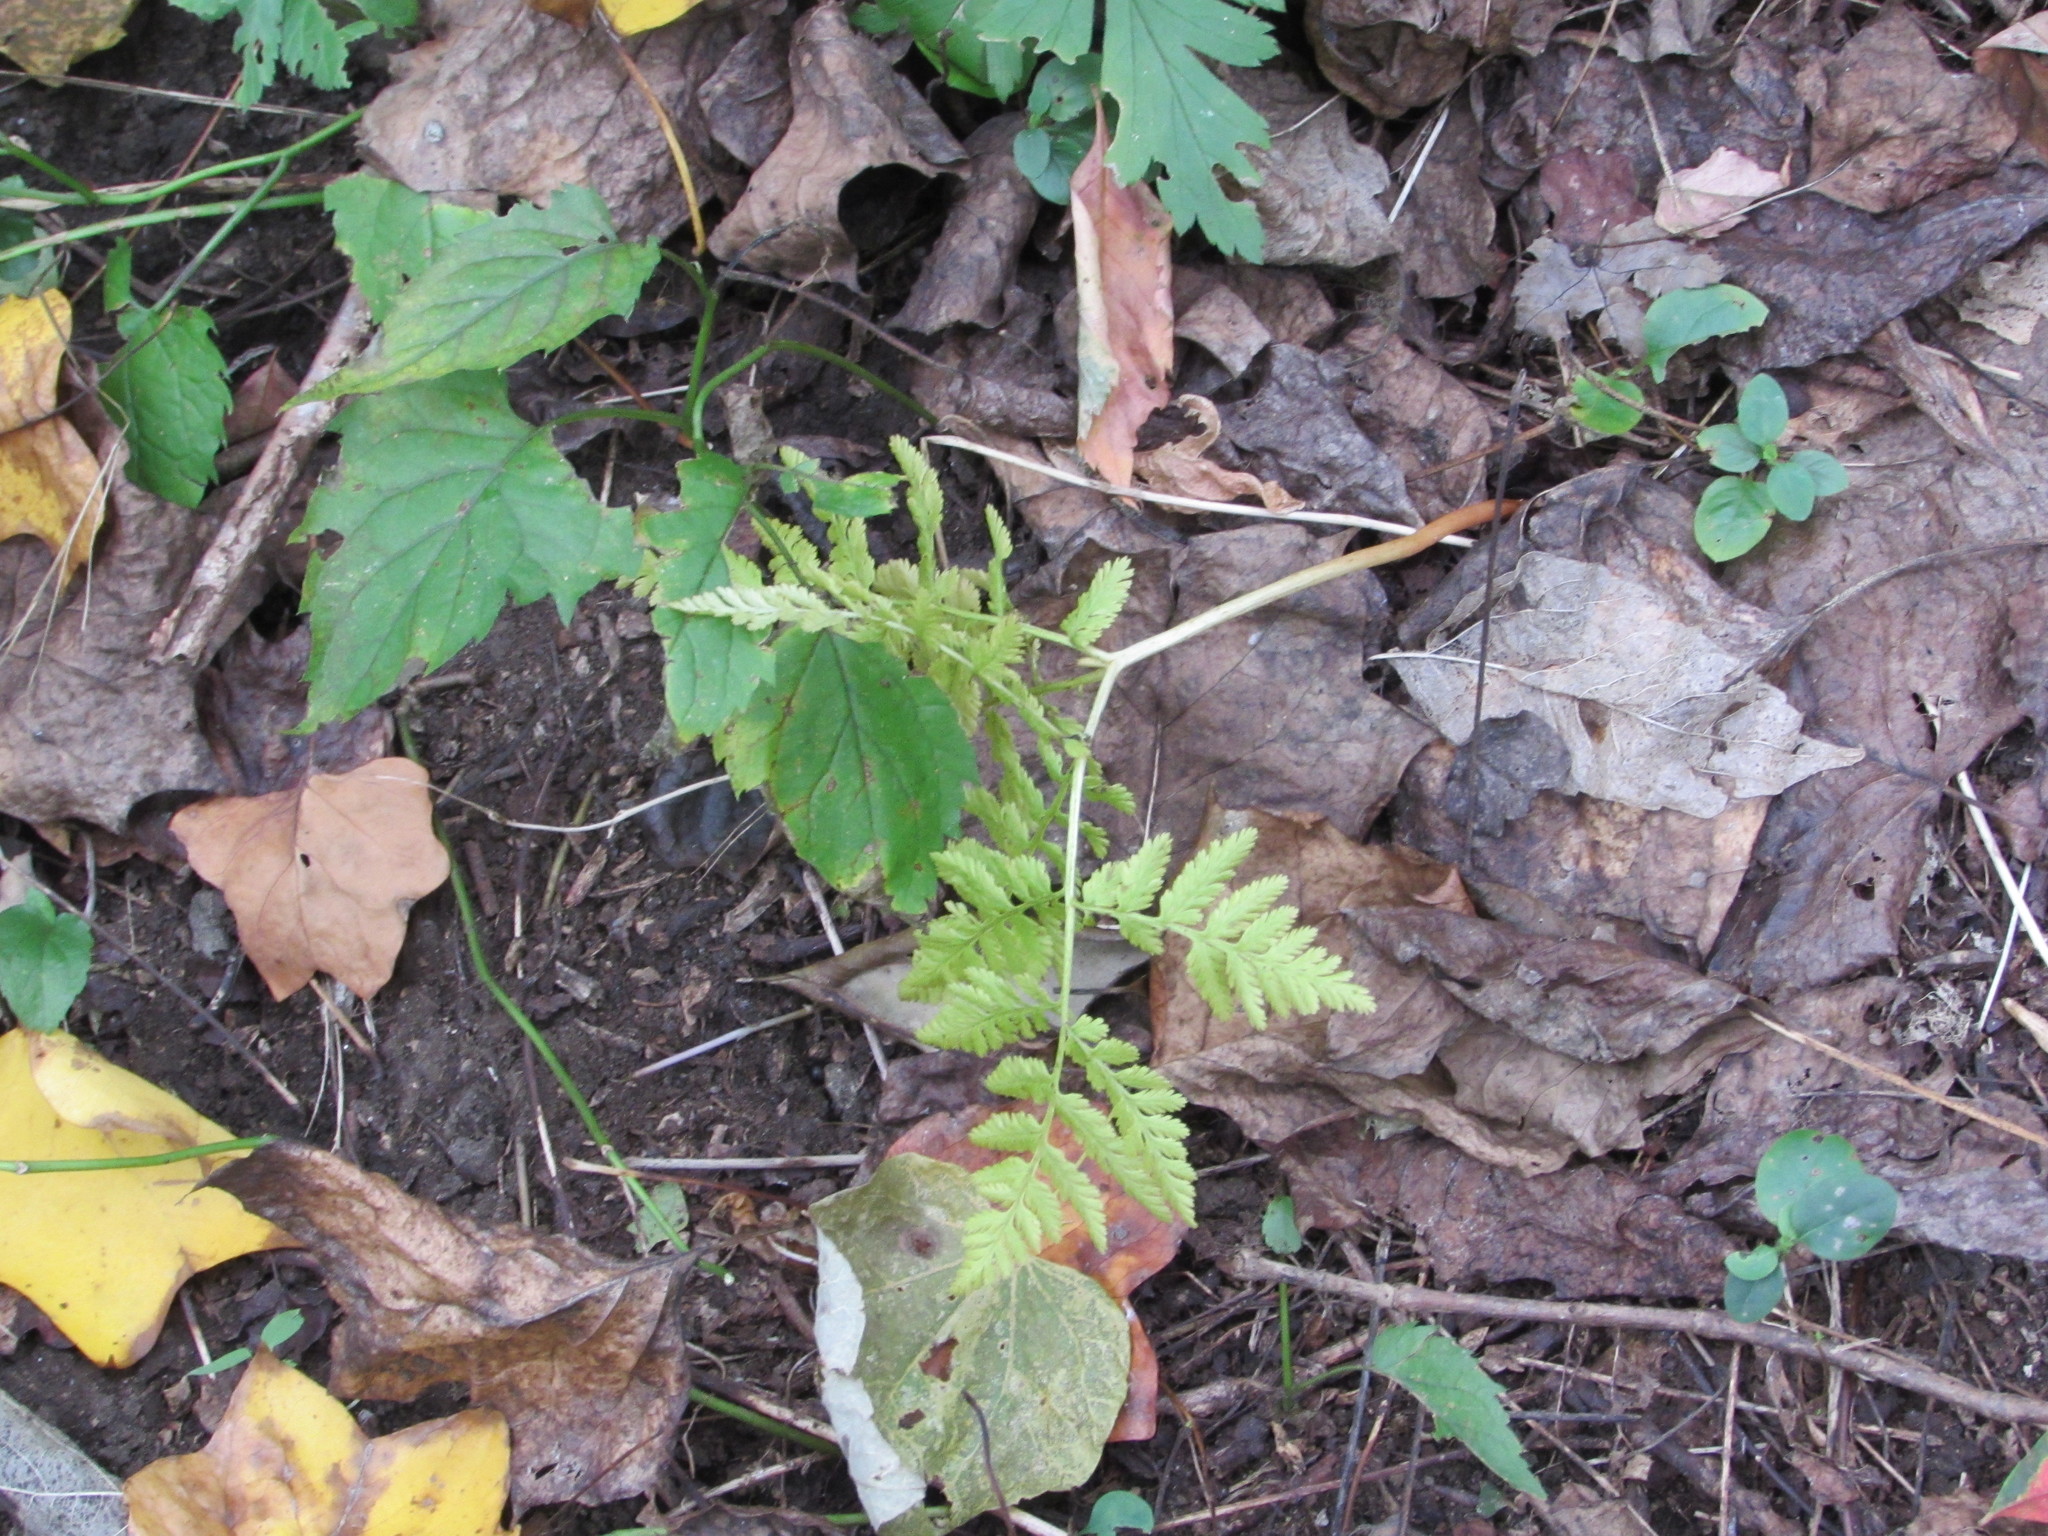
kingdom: Plantae
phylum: Tracheophyta
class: Polypodiopsida
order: Ophioglossales
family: Ophioglossaceae
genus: Botrypus
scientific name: Botrypus virginianus
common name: Common grapefern
